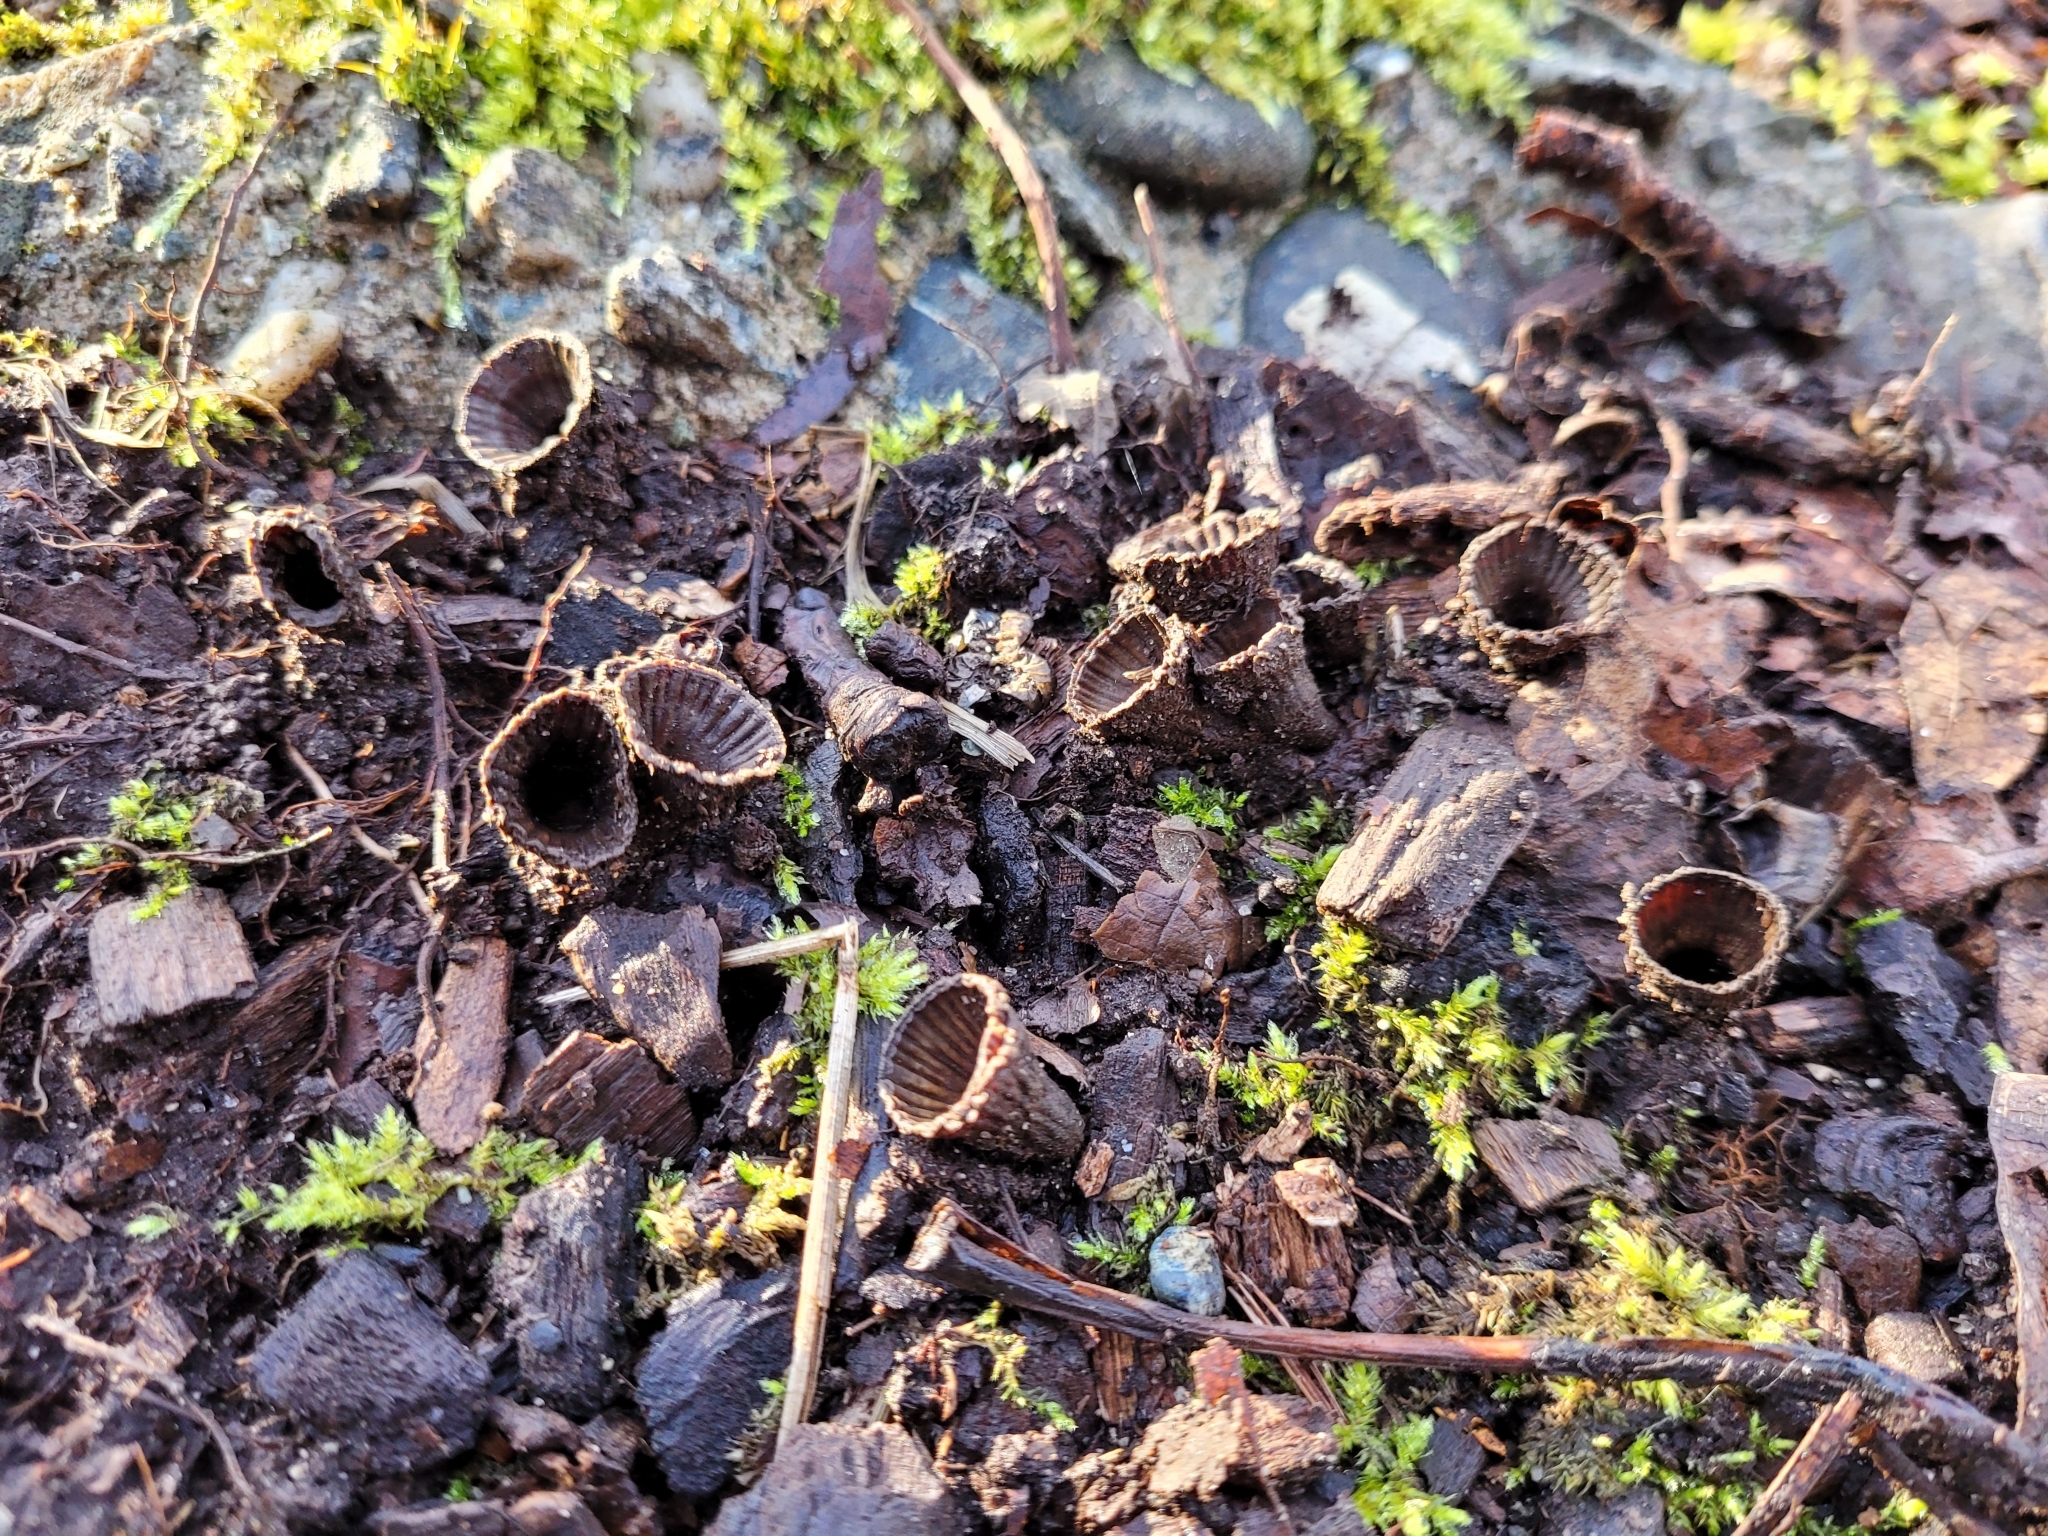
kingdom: Fungi
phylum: Basidiomycota
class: Agaricomycetes
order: Agaricales
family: Agaricaceae
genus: Cyathus
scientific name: Cyathus striatus
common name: Fluted bird's nest
